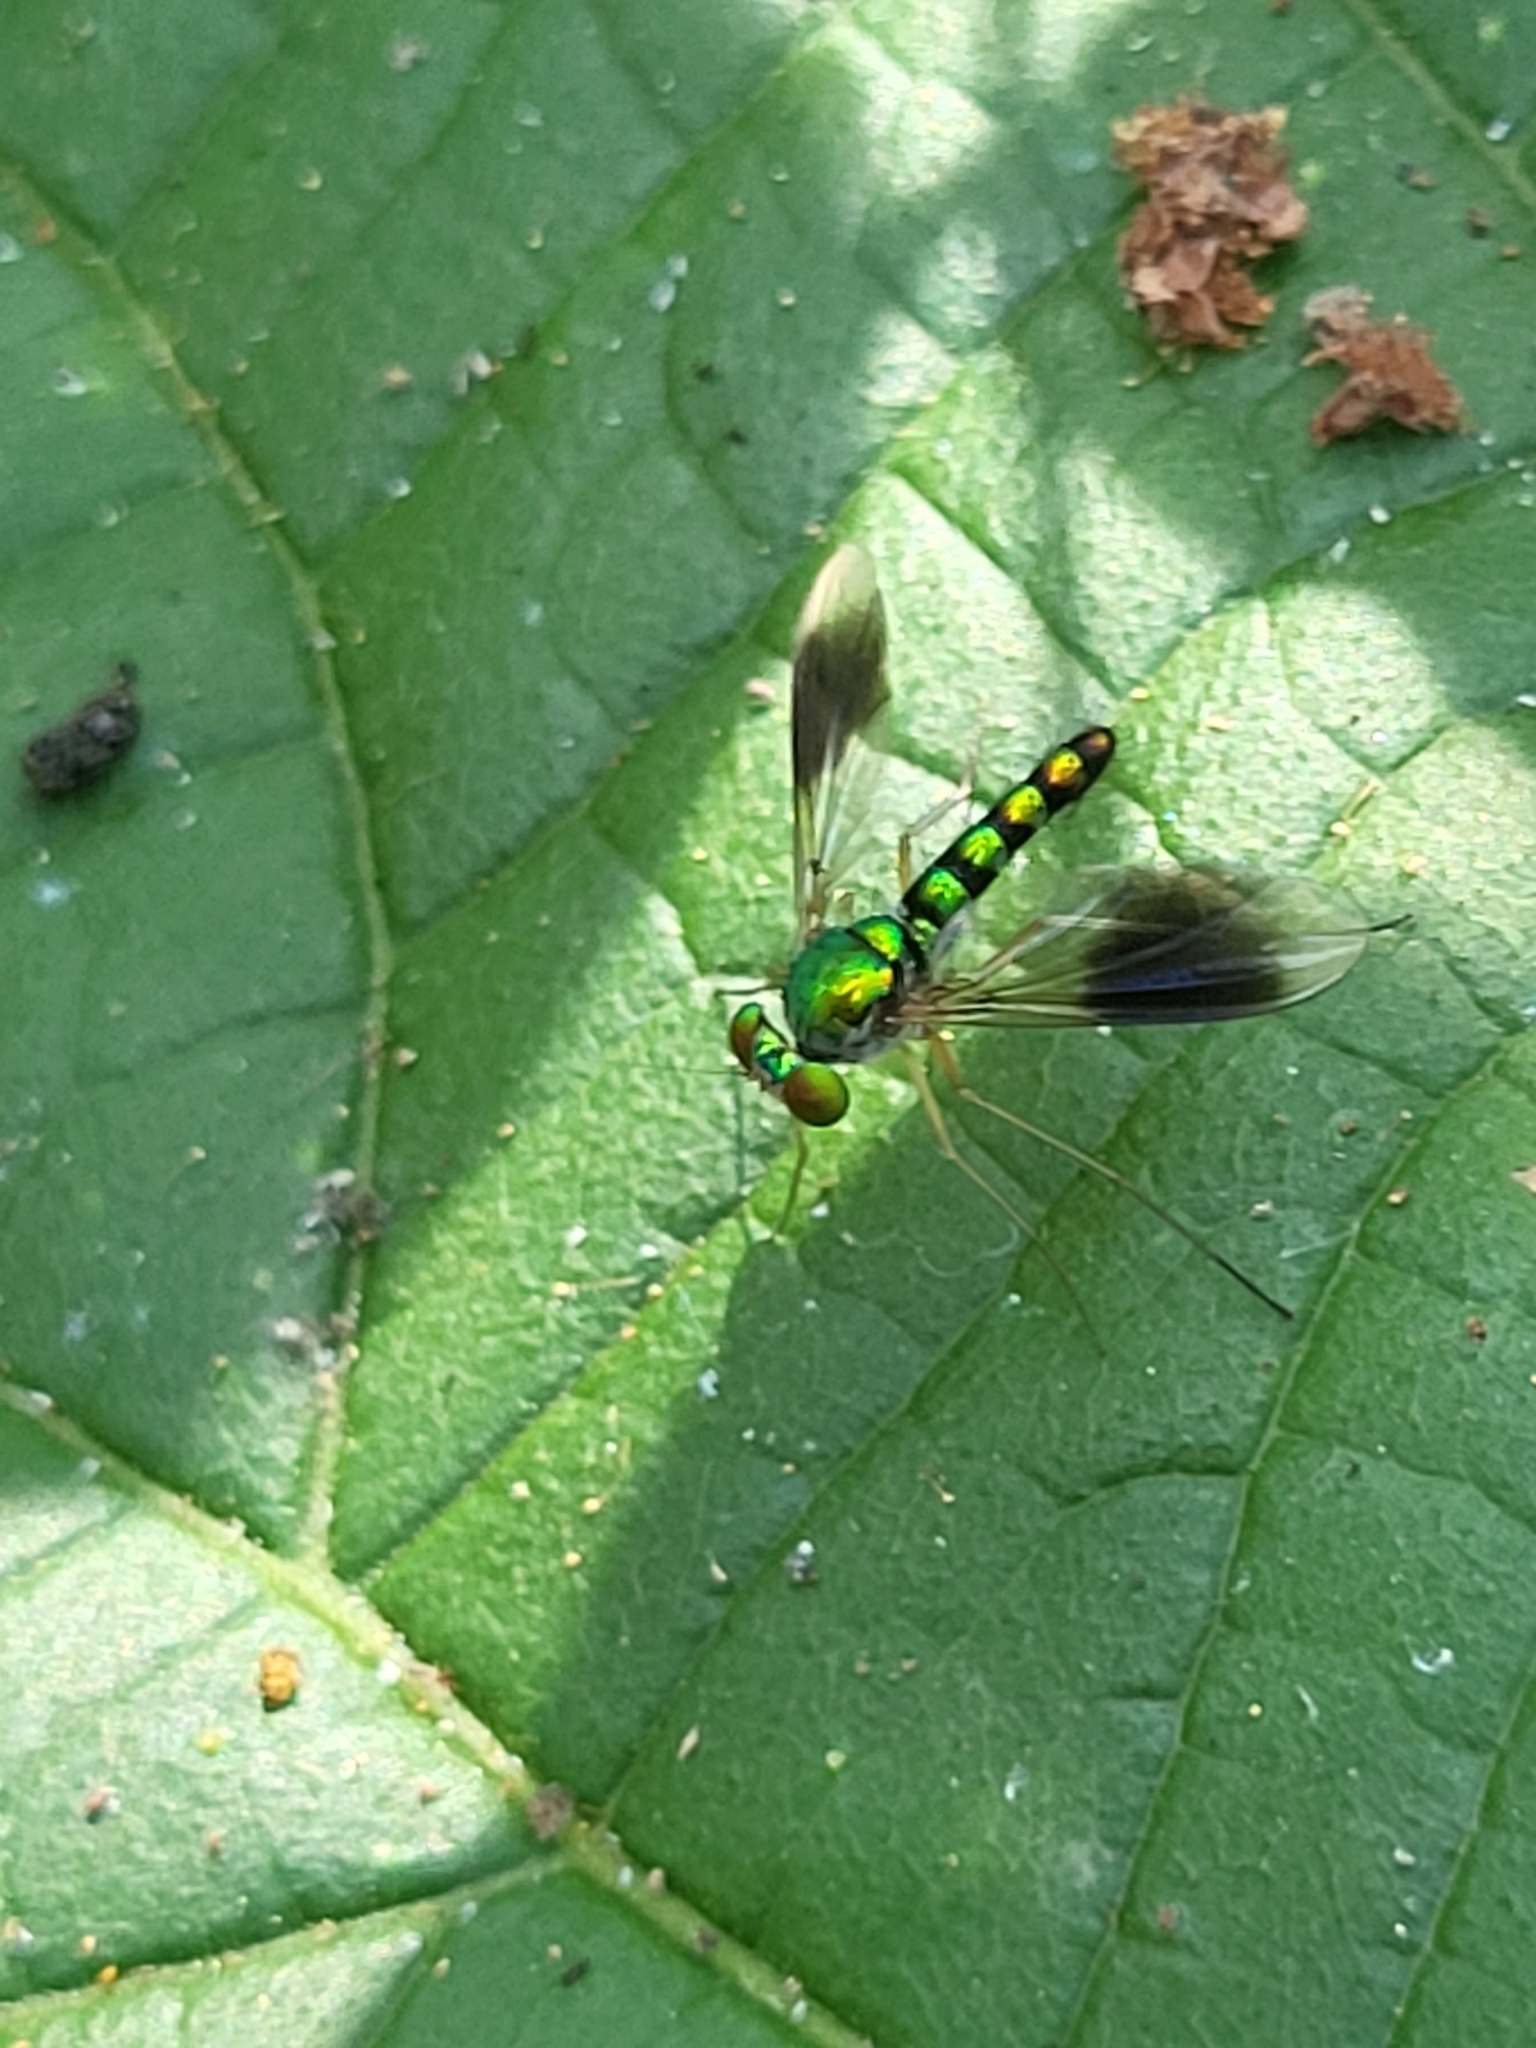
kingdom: Animalia
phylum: Arthropoda
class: Insecta
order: Diptera
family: Dolichopodidae
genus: Heteropsilopus
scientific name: Heteropsilopus vanus
